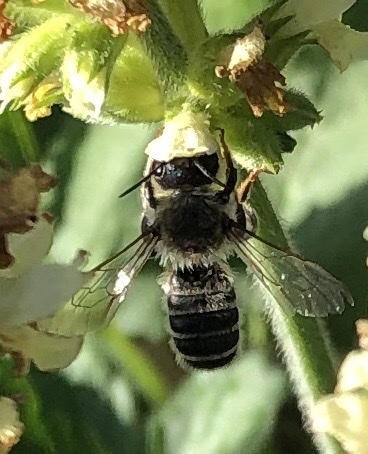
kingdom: Animalia
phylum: Arthropoda
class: Insecta
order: Hymenoptera
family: Megachilidae
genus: Megachile
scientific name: Megachile ericetorum
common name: Leafcutter bee
